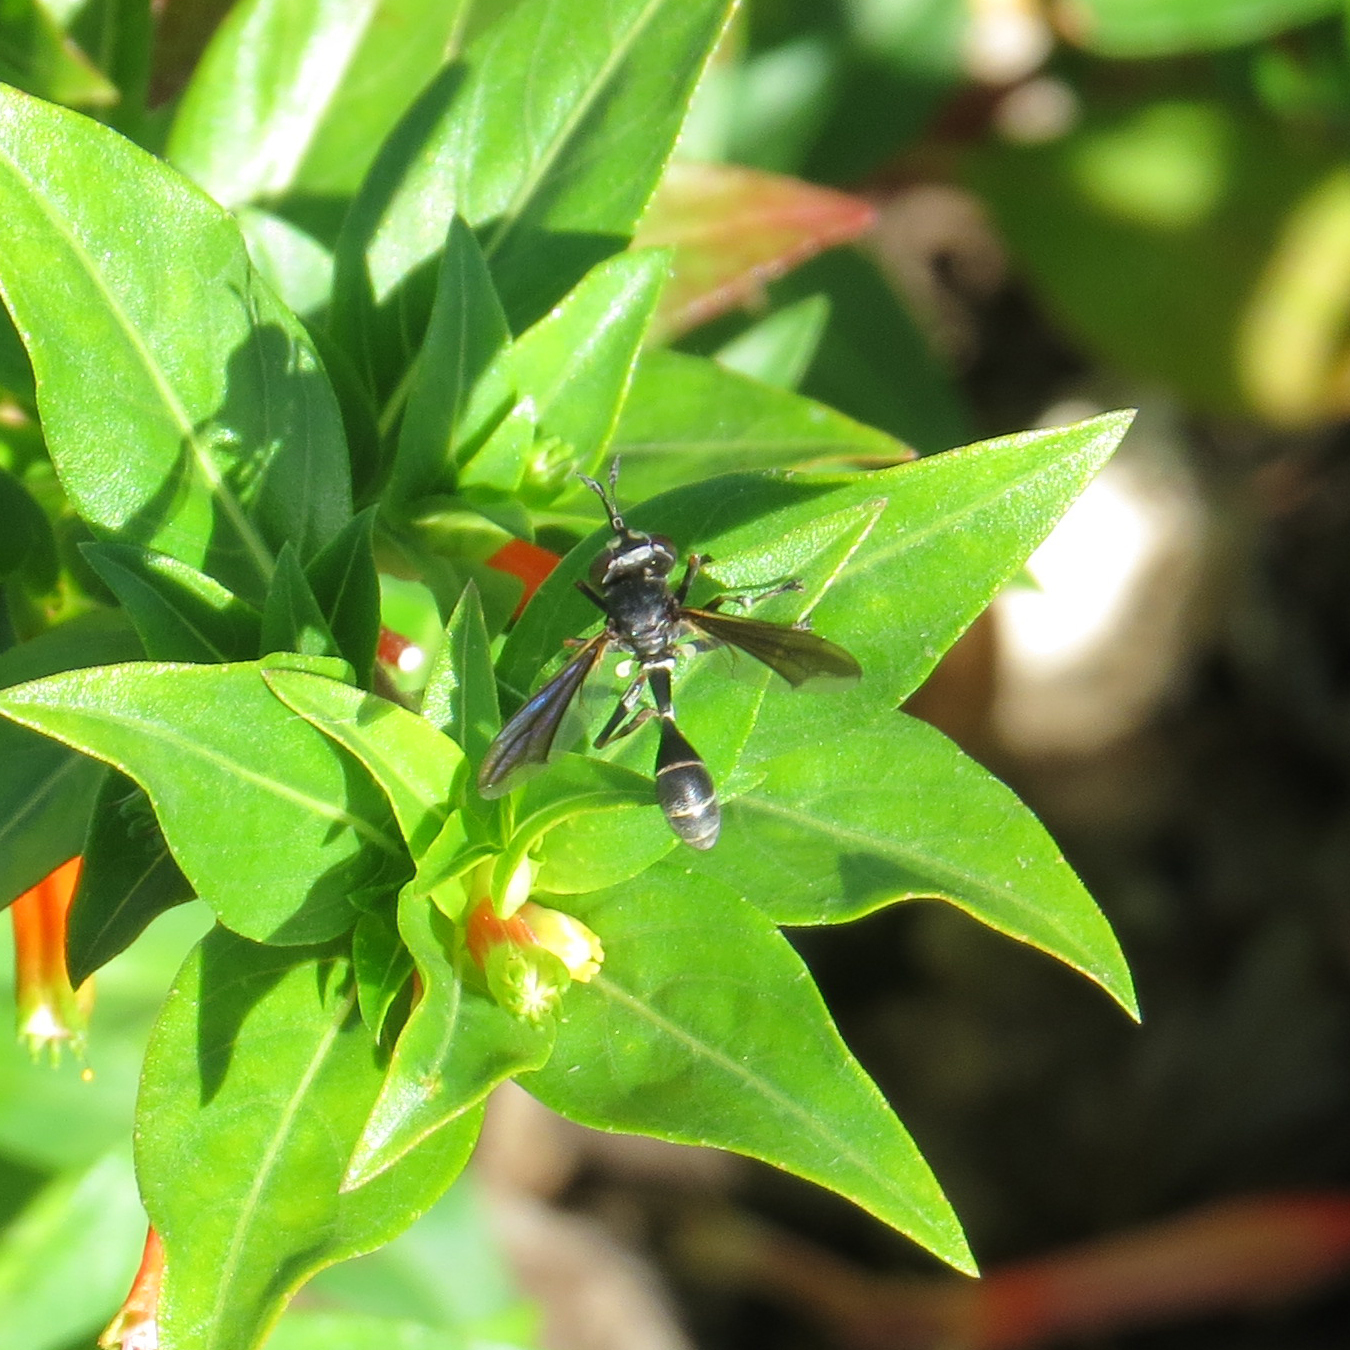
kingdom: Animalia
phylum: Arthropoda
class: Insecta
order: Diptera
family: Conopidae
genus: Physocephala
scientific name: Physocephala tibialis
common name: Common eastern physocephala
